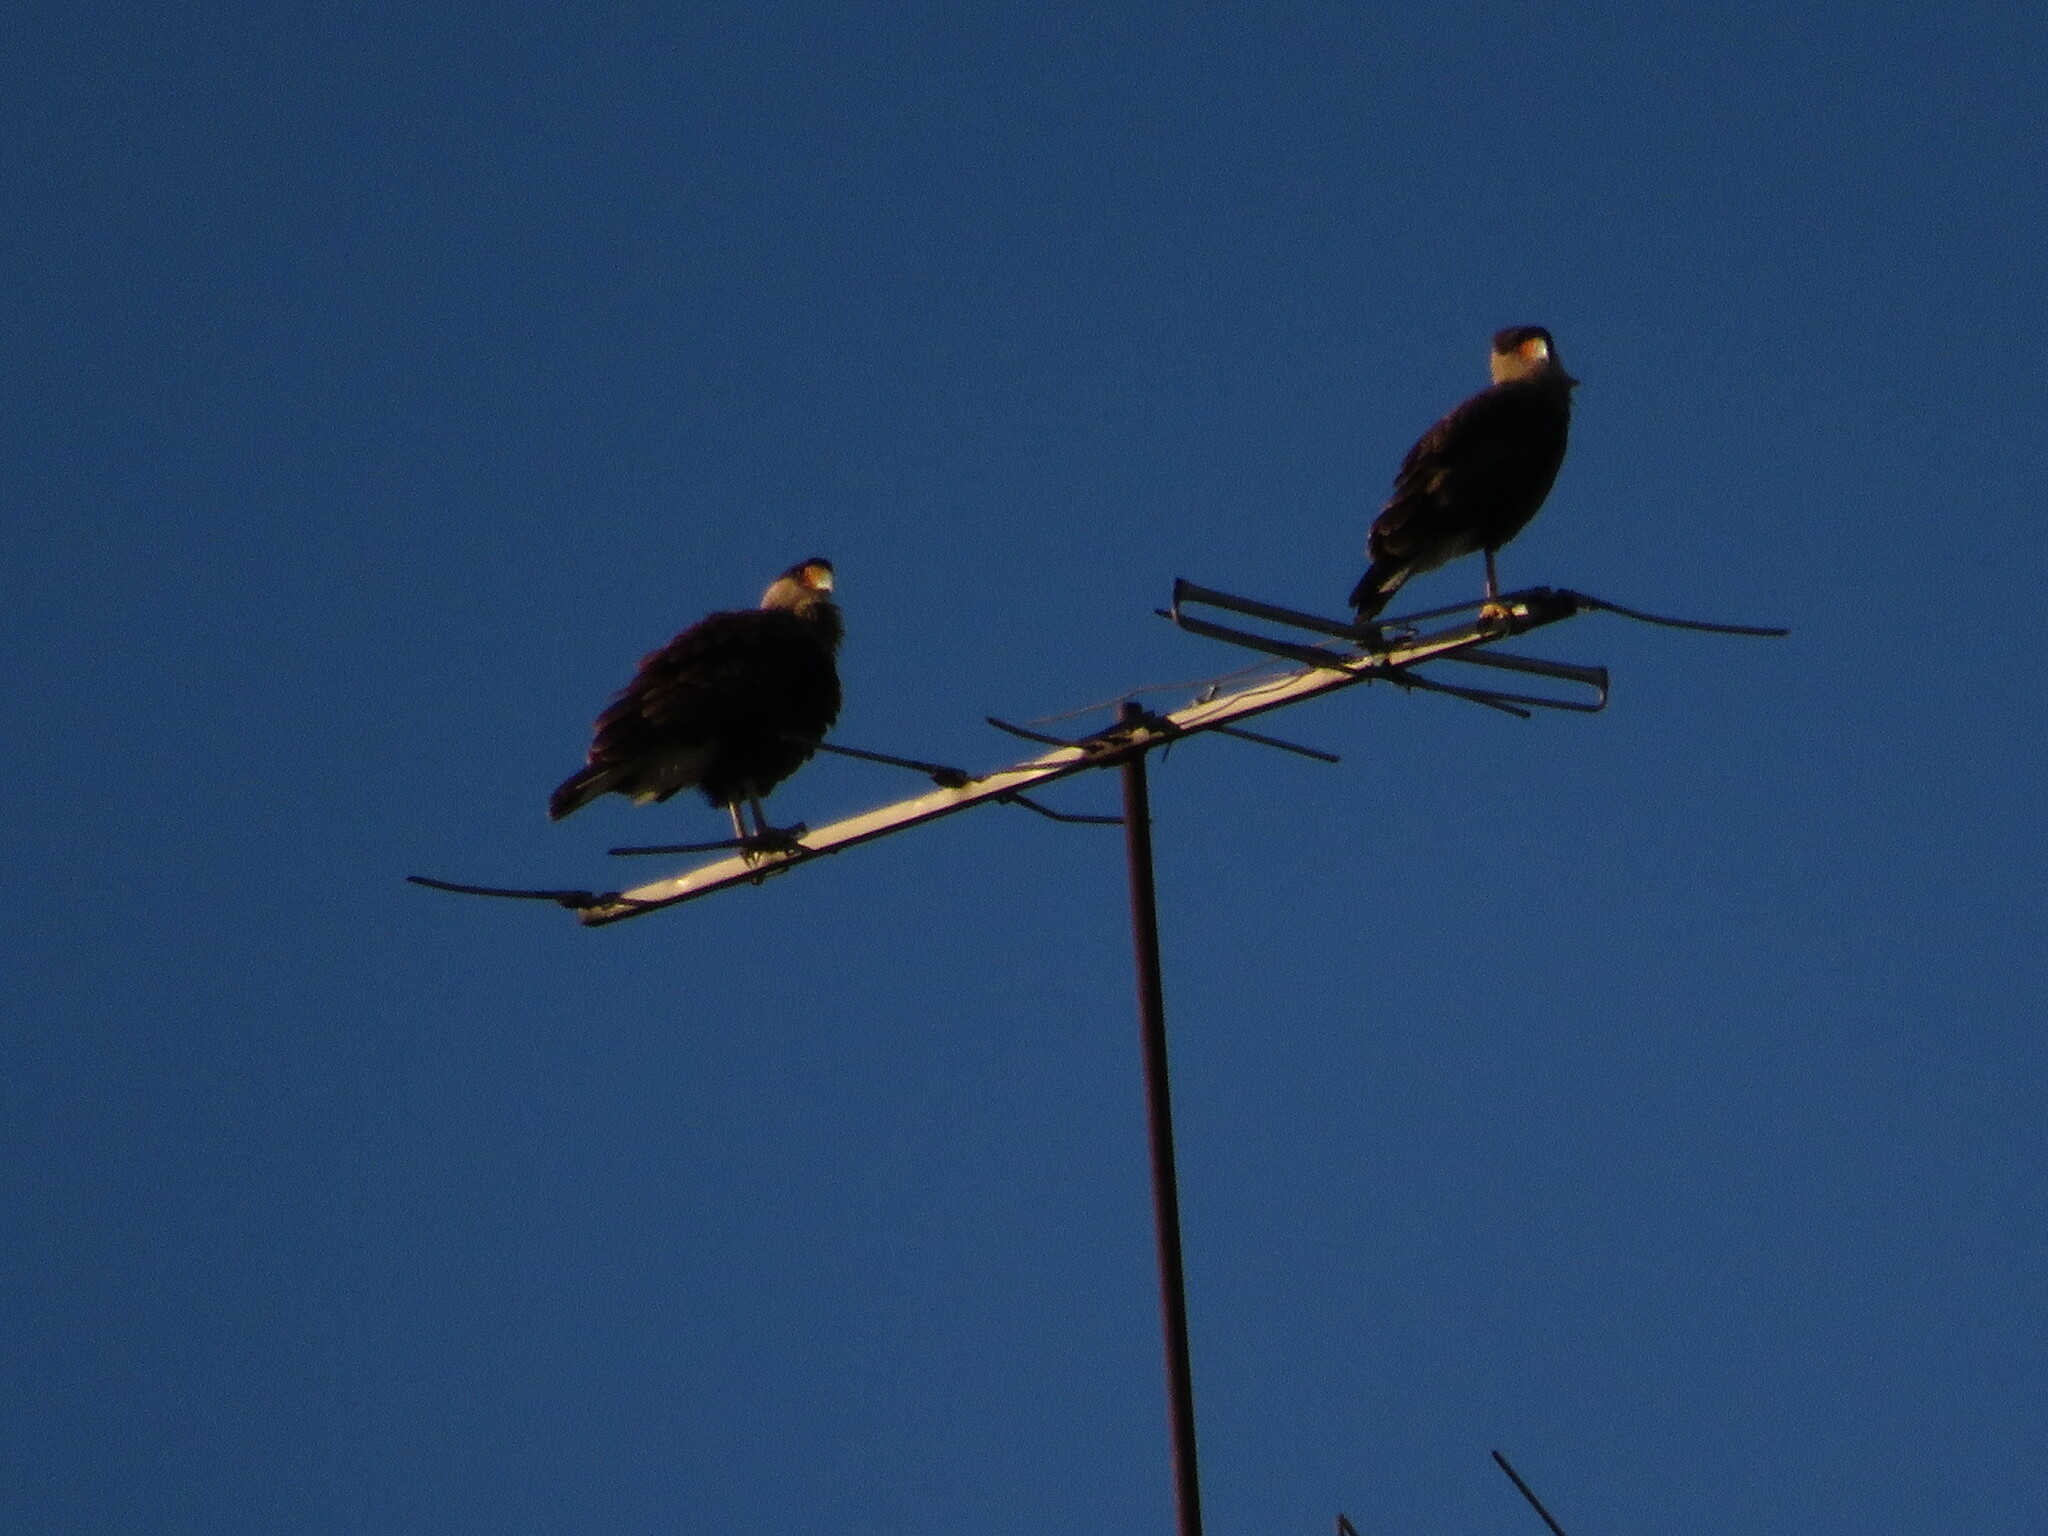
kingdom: Animalia
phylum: Chordata
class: Aves
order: Falconiformes
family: Falconidae
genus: Caracara
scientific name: Caracara plancus
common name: Southern caracara
